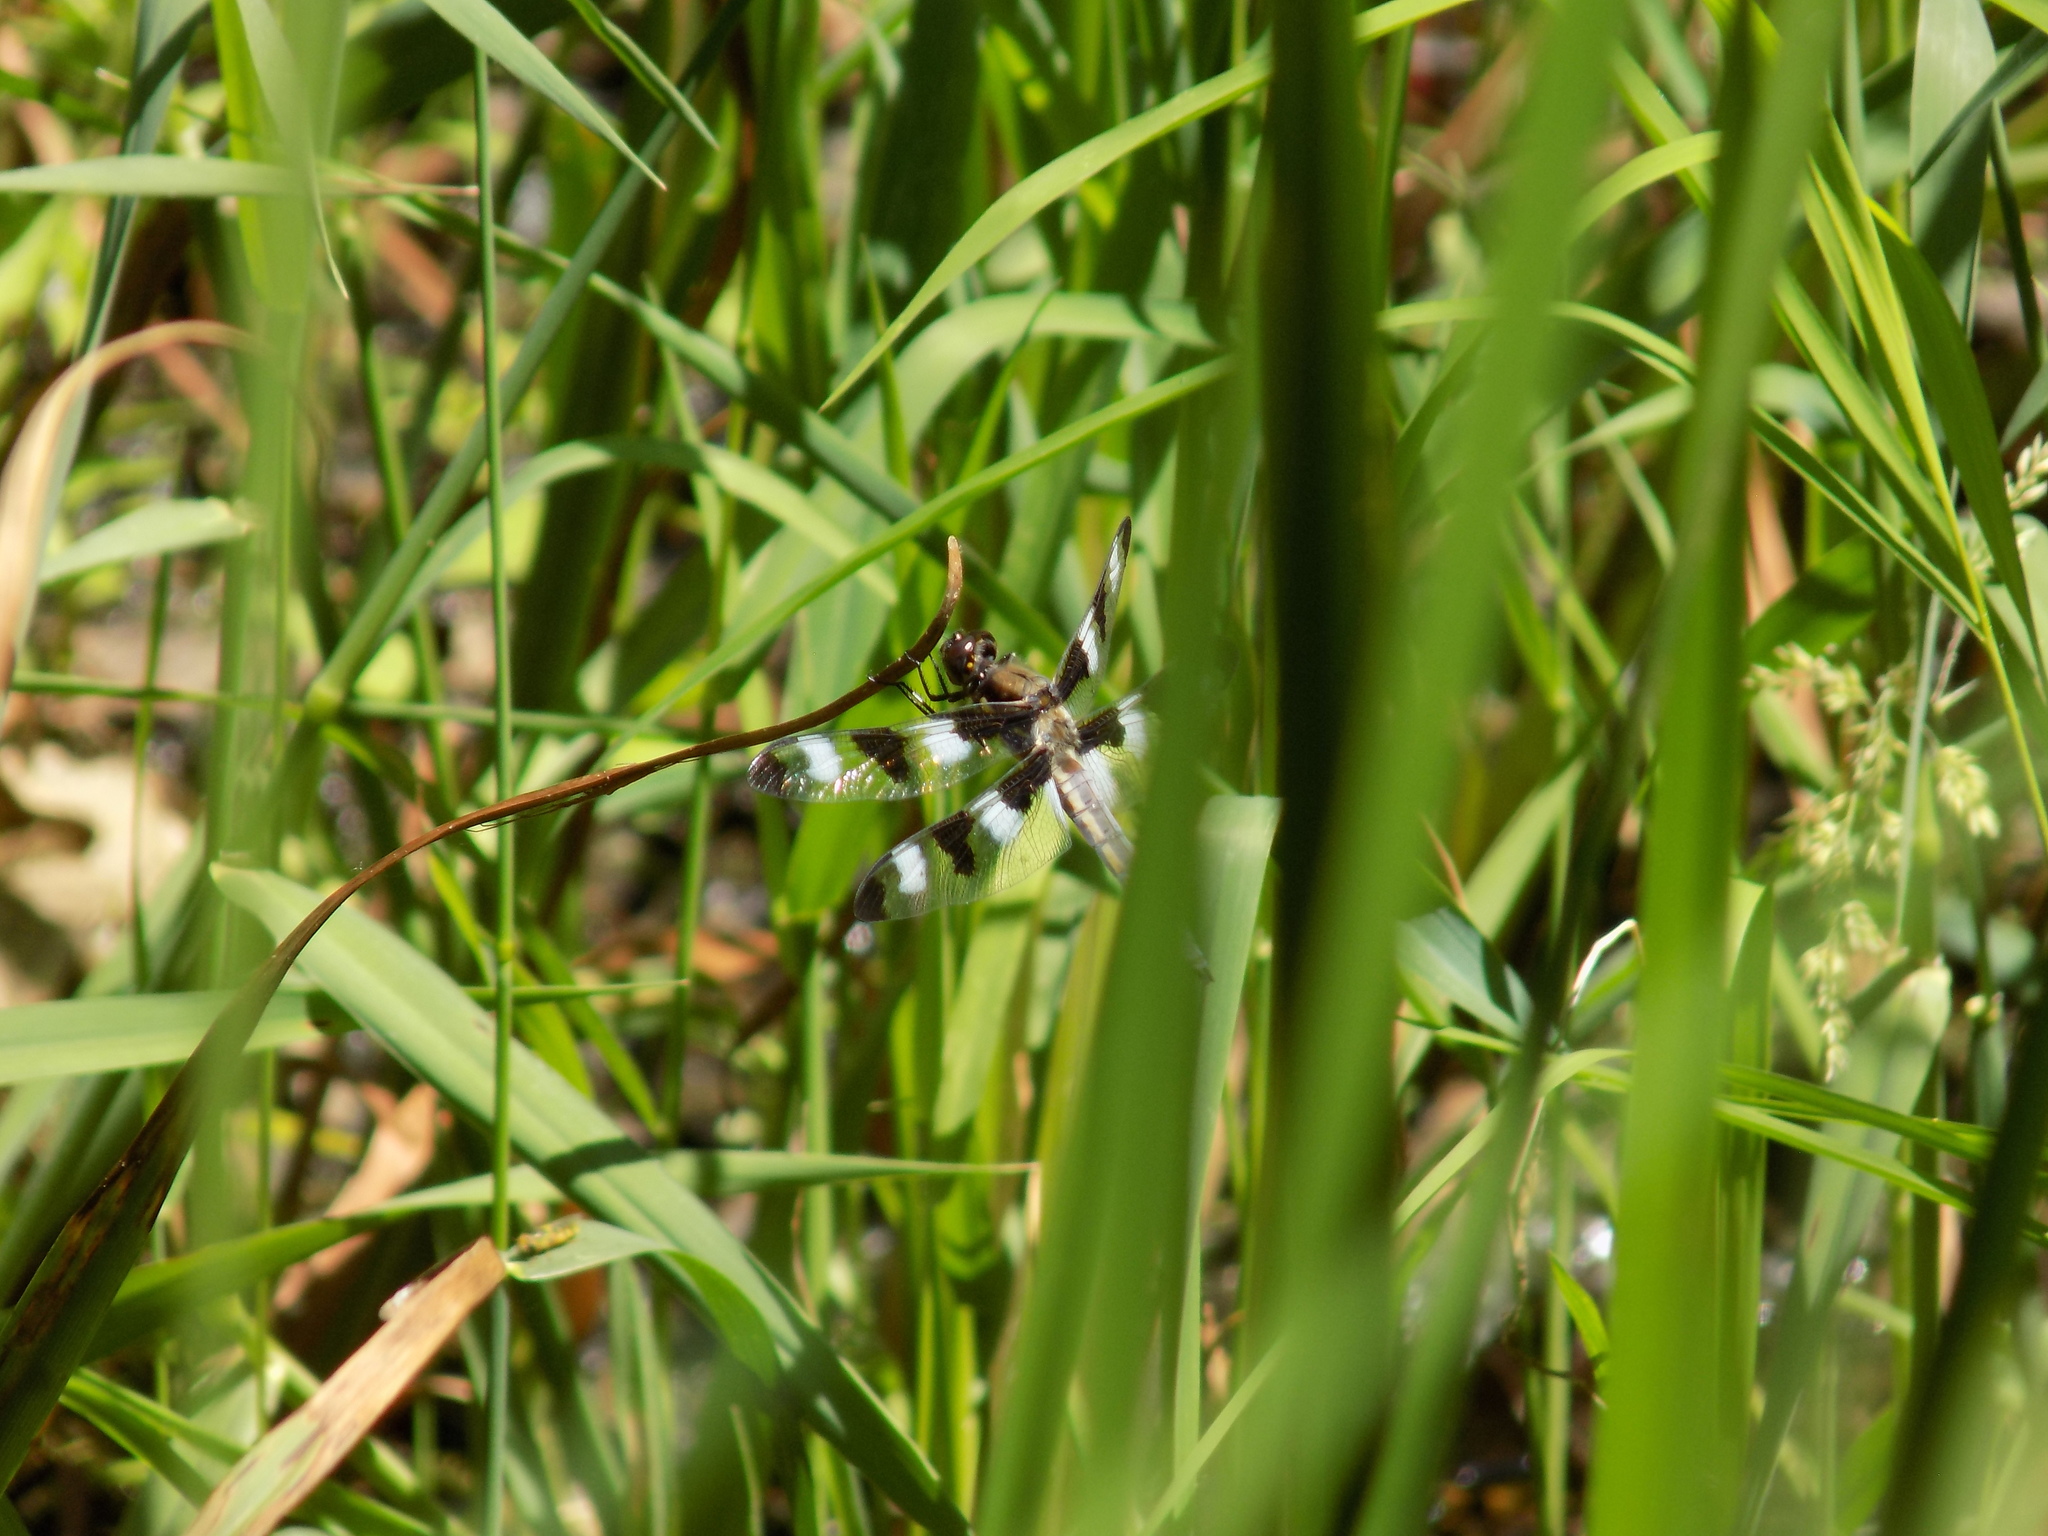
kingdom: Animalia
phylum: Arthropoda
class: Insecta
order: Odonata
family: Libellulidae
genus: Libellula
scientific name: Libellula pulchella
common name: Twelve-spotted skimmer
